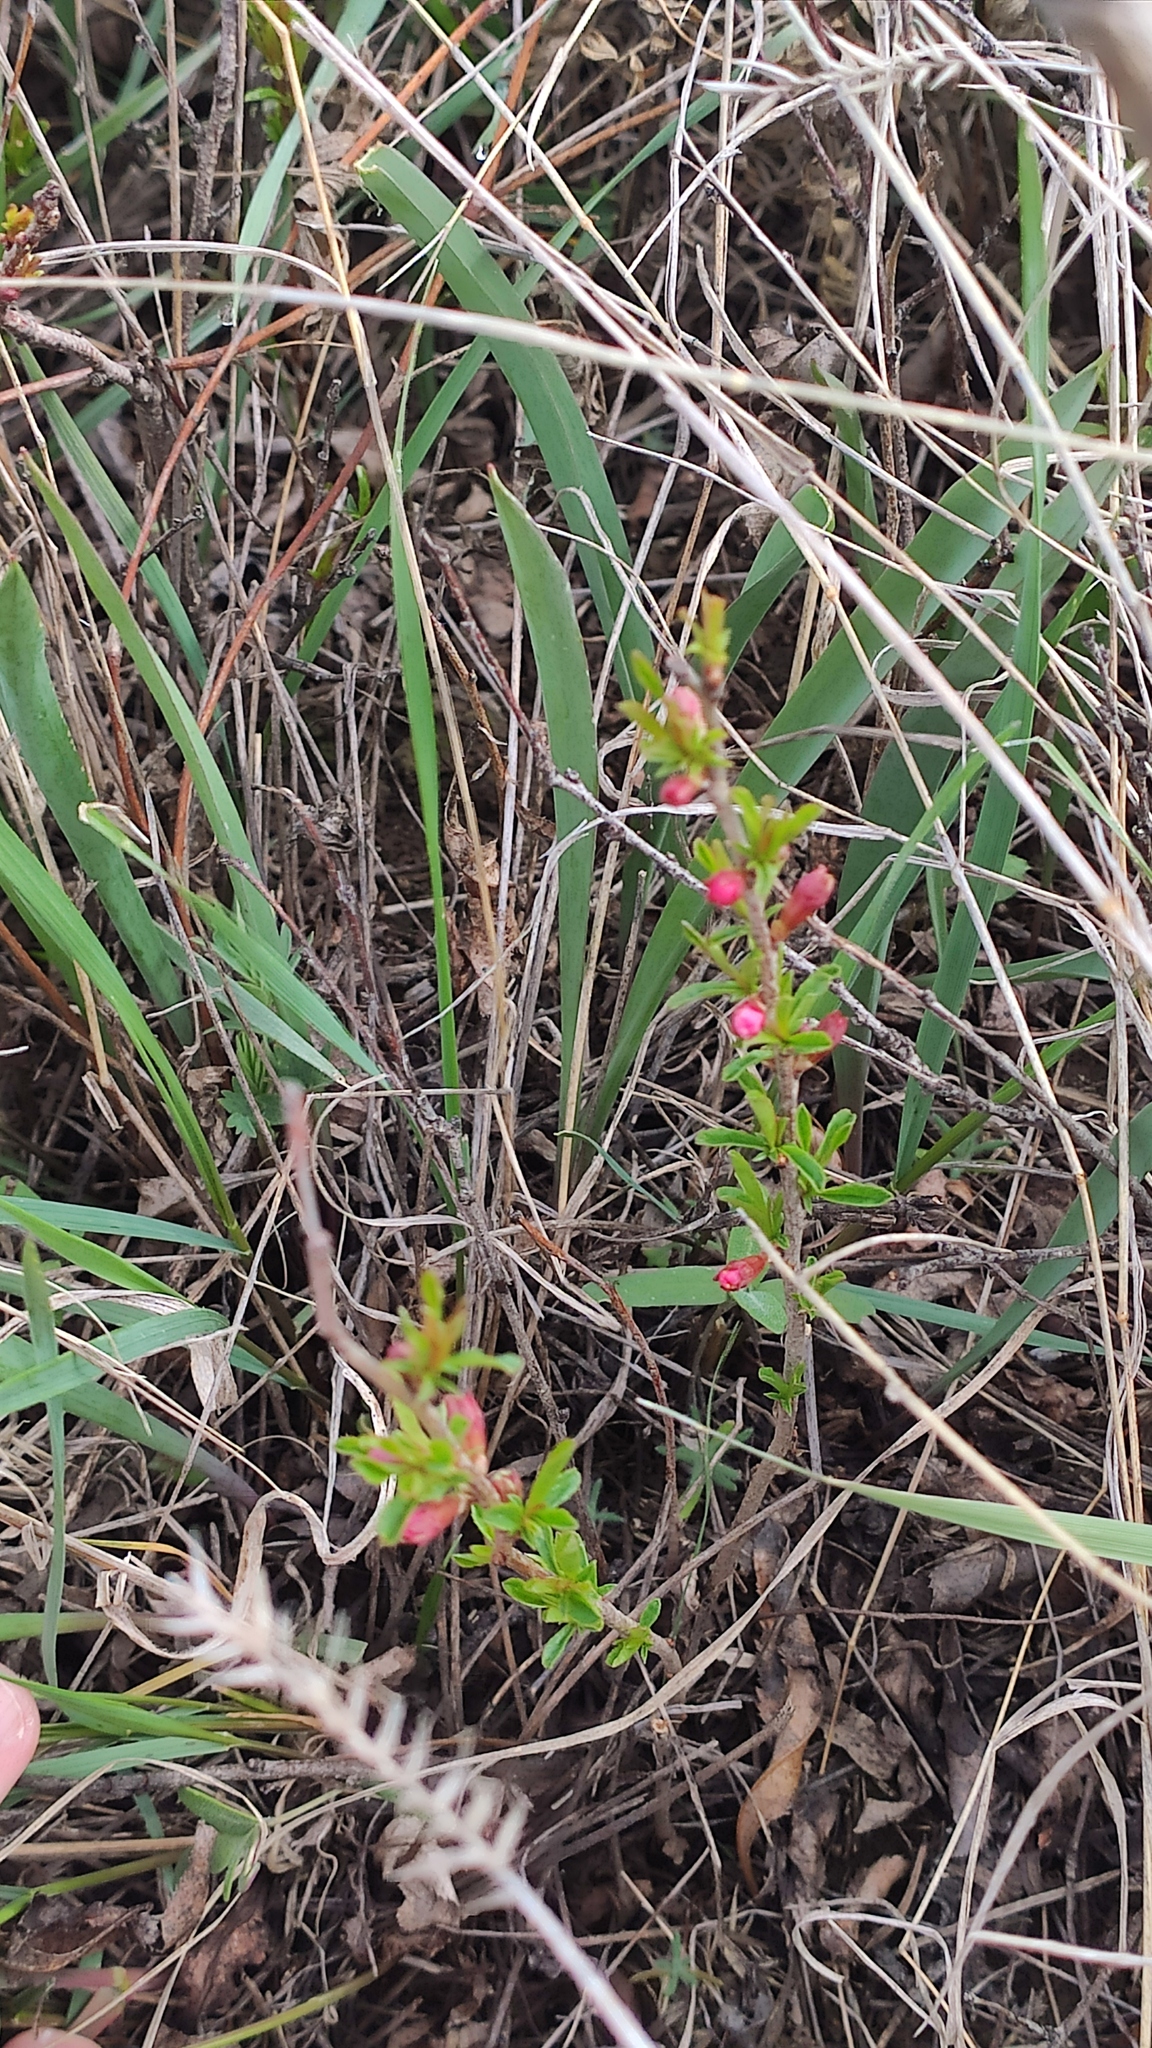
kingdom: Plantae
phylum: Tracheophyta
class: Magnoliopsida
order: Rosales
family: Rosaceae
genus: Prunus
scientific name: Prunus tenella
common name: Dwarf russian almond
